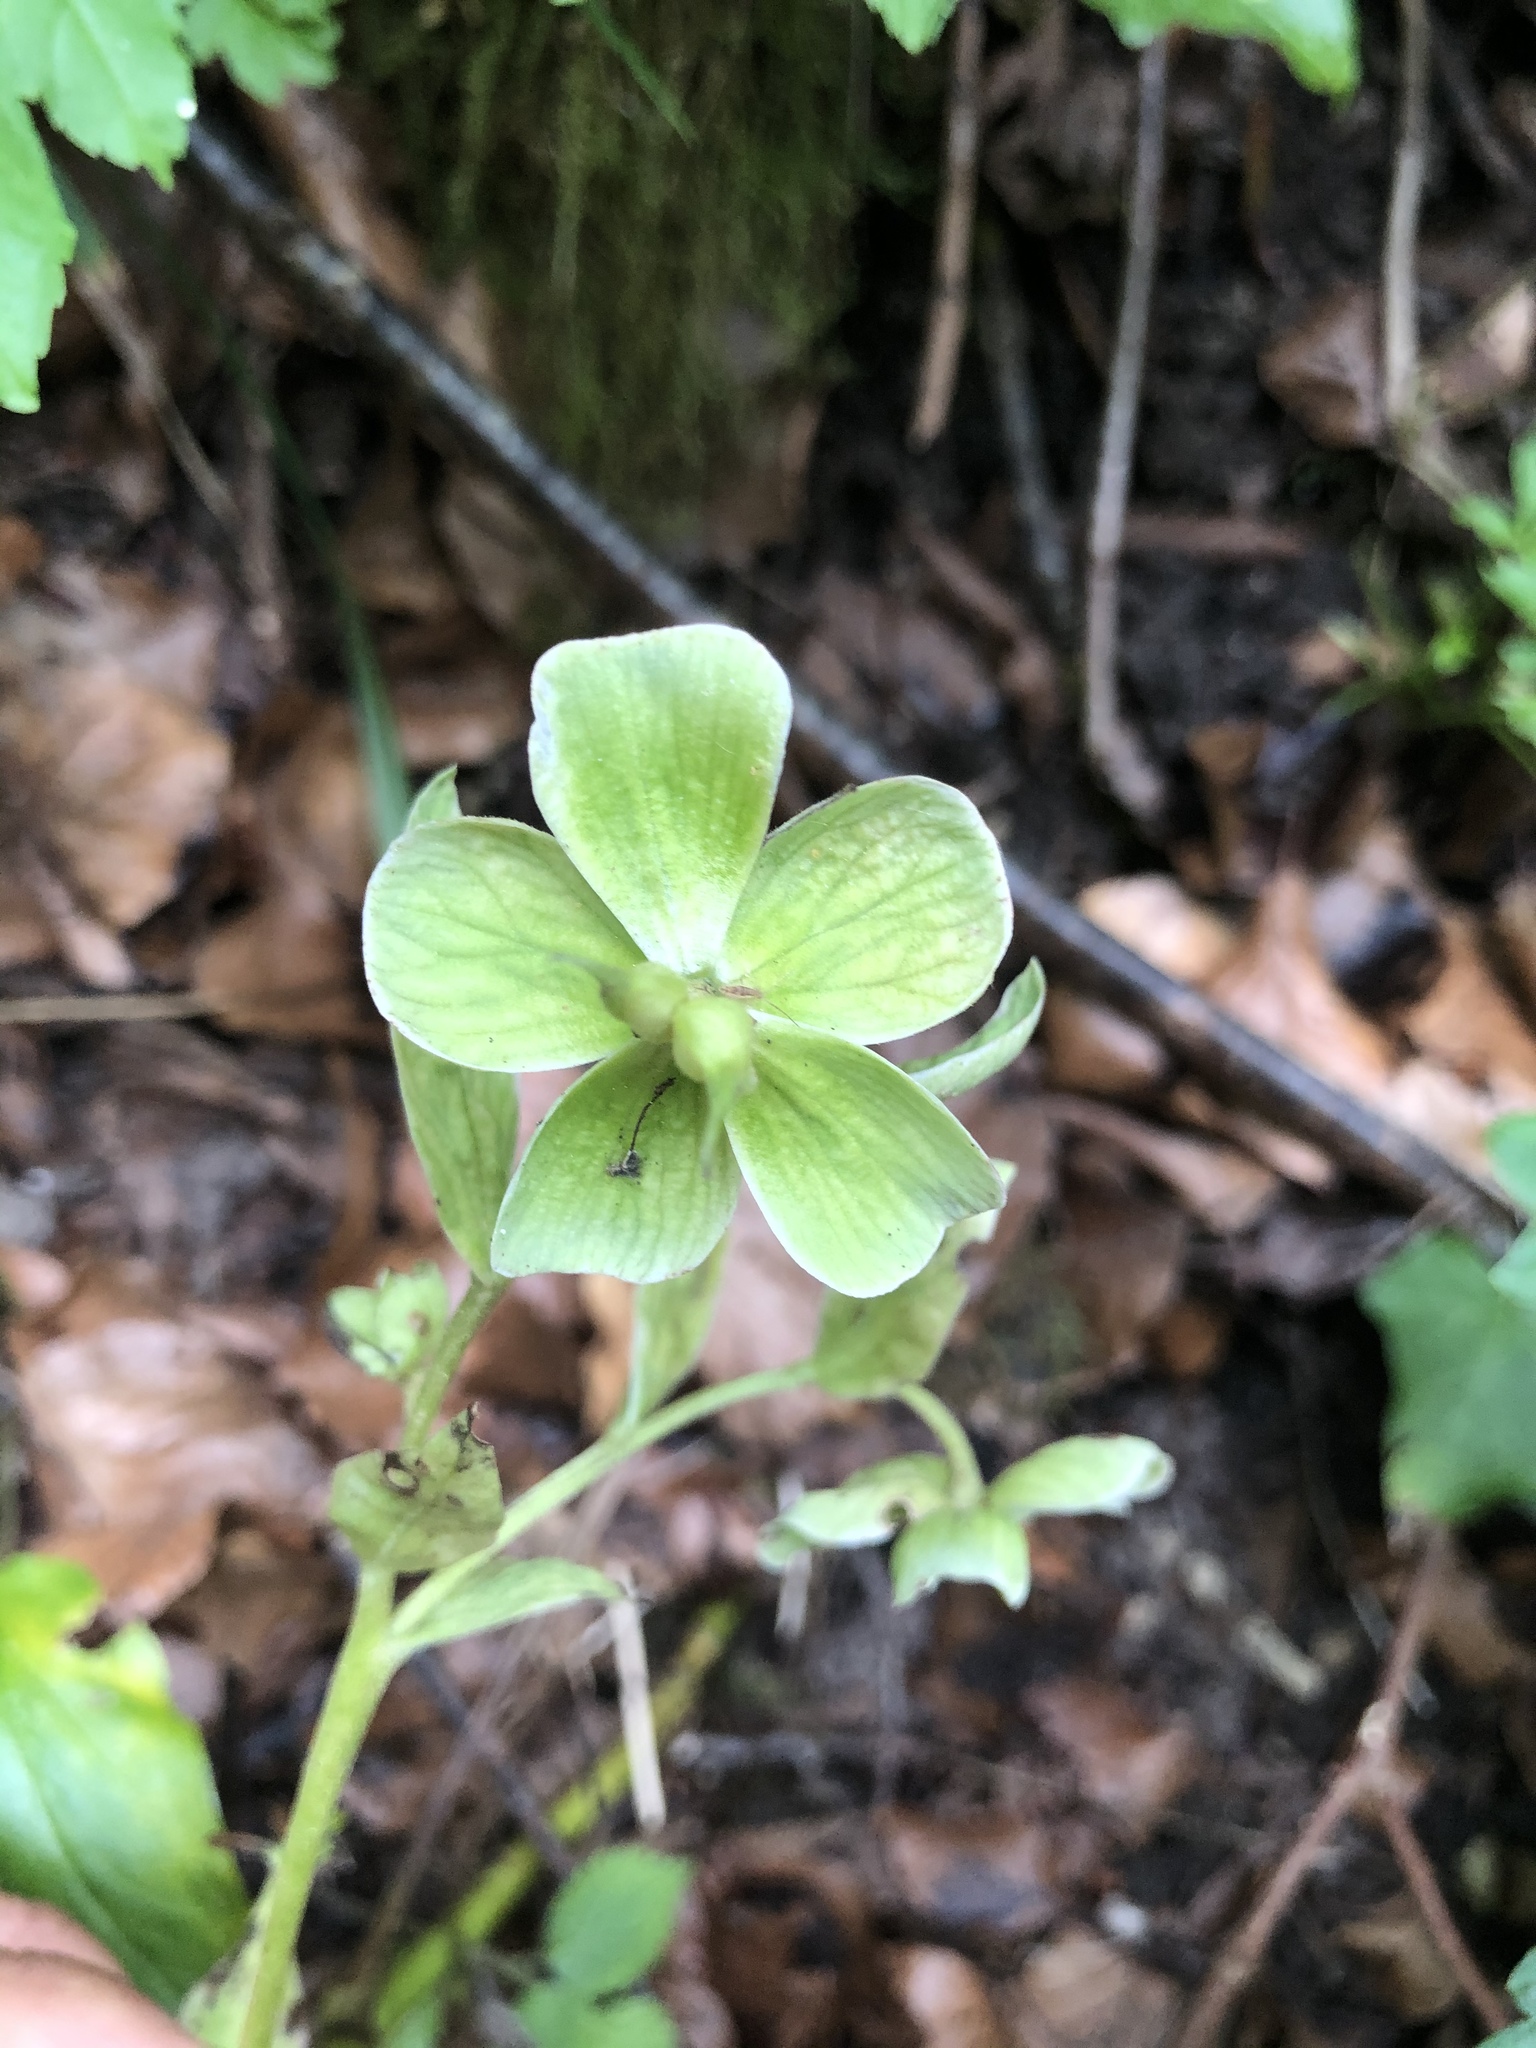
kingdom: Plantae
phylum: Tracheophyta
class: Magnoliopsida
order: Ranunculales
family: Ranunculaceae
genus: Helleborus
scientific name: Helleborus foetidus
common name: Stinking hellebore
